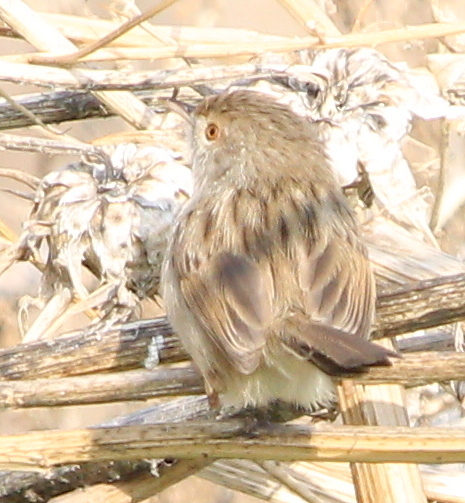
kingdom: Animalia
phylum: Chordata
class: Aves
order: Passeriformes
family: Cisticolidae
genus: Prinia
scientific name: Prinia gracilis
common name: Graceful prinia
